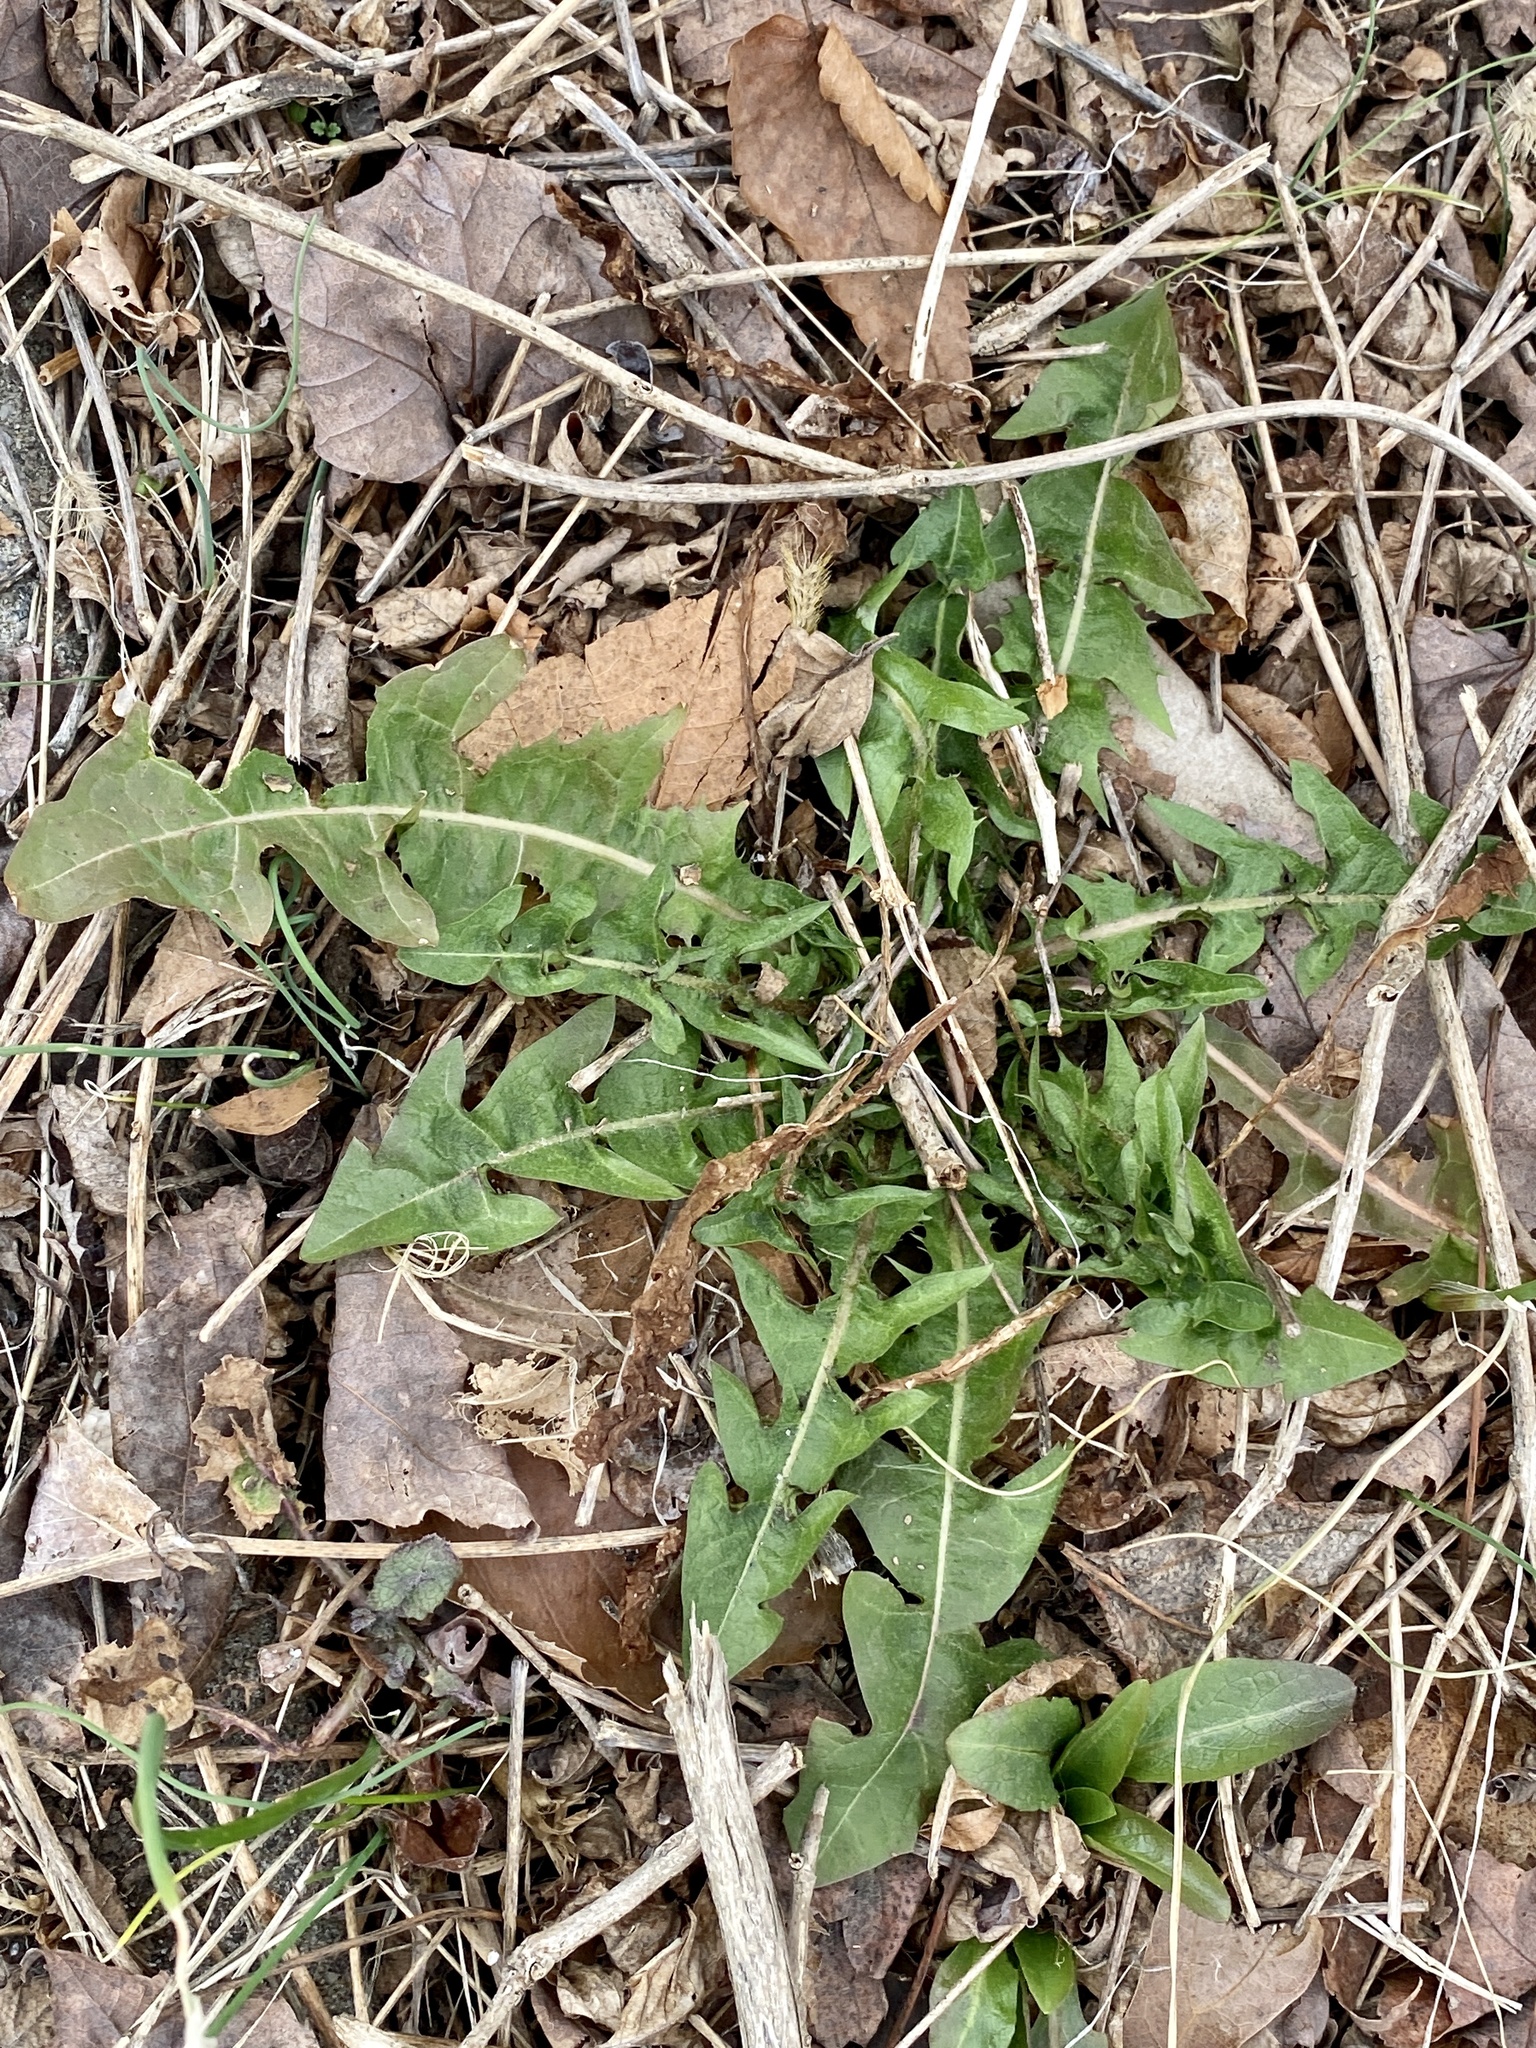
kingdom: Plantae
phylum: Tracheophyta
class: Magnoliopsida
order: Asterales
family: Asteraceae
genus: Taraxacum
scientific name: Taraxacum officinale
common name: Common dandelion
